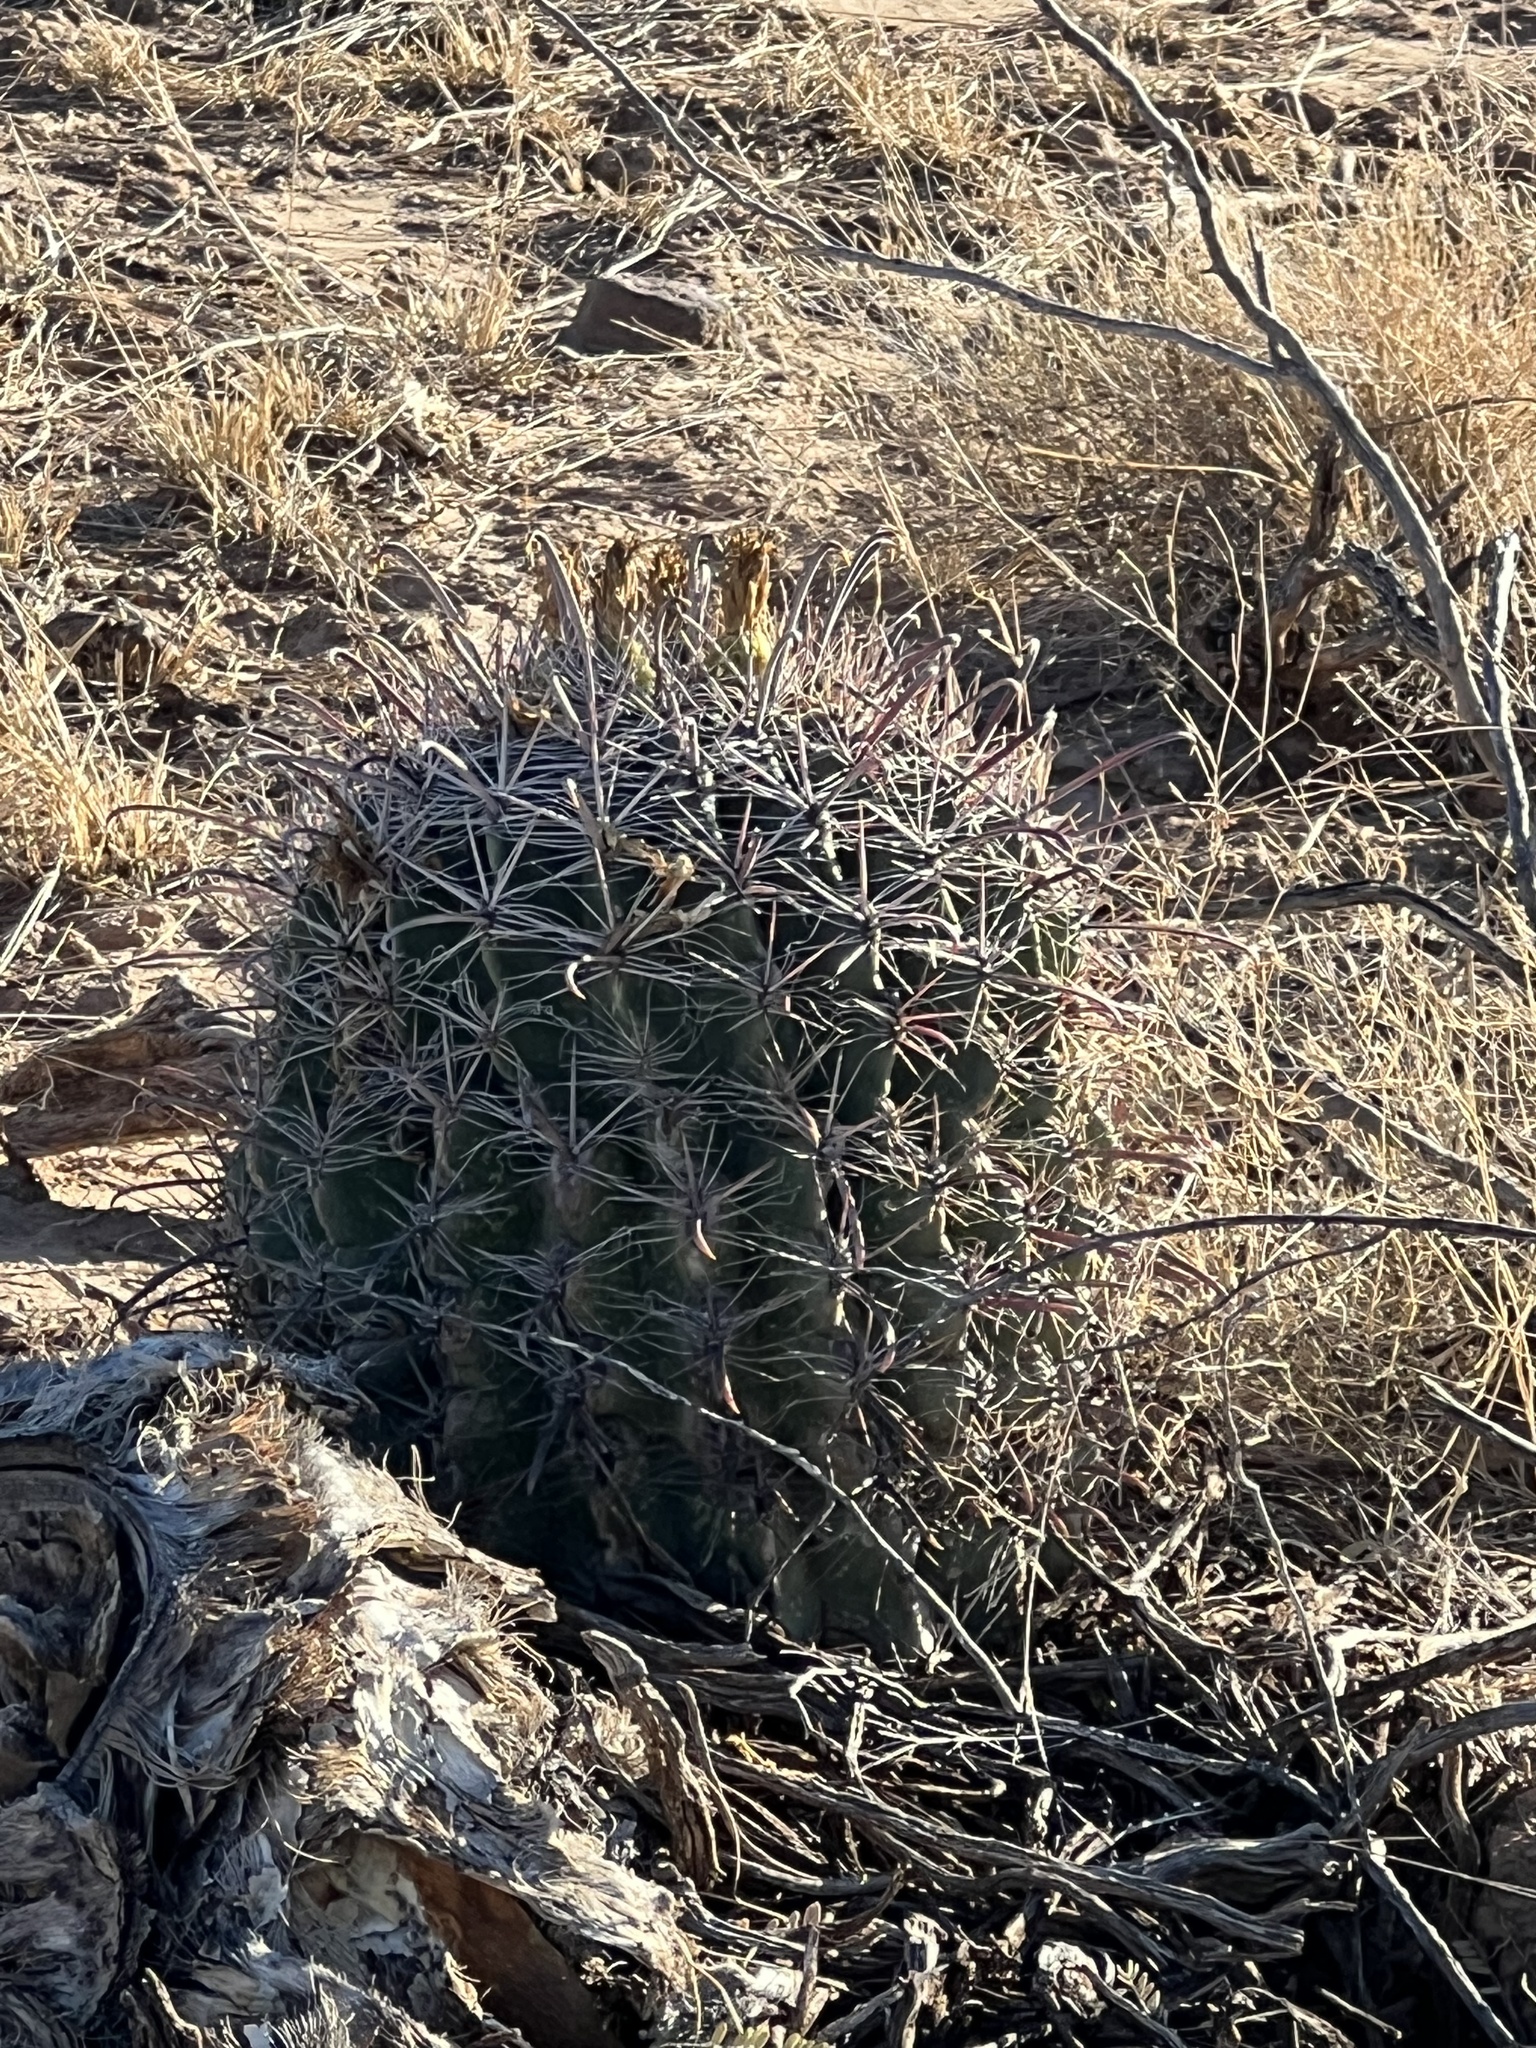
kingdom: Plantae
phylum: Tracheophyta
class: Magnoliopsida
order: Caryophyllales
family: Cactaceae
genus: Ferocactus
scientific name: Ferocactus wislizeni
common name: Candy barrel cactus
